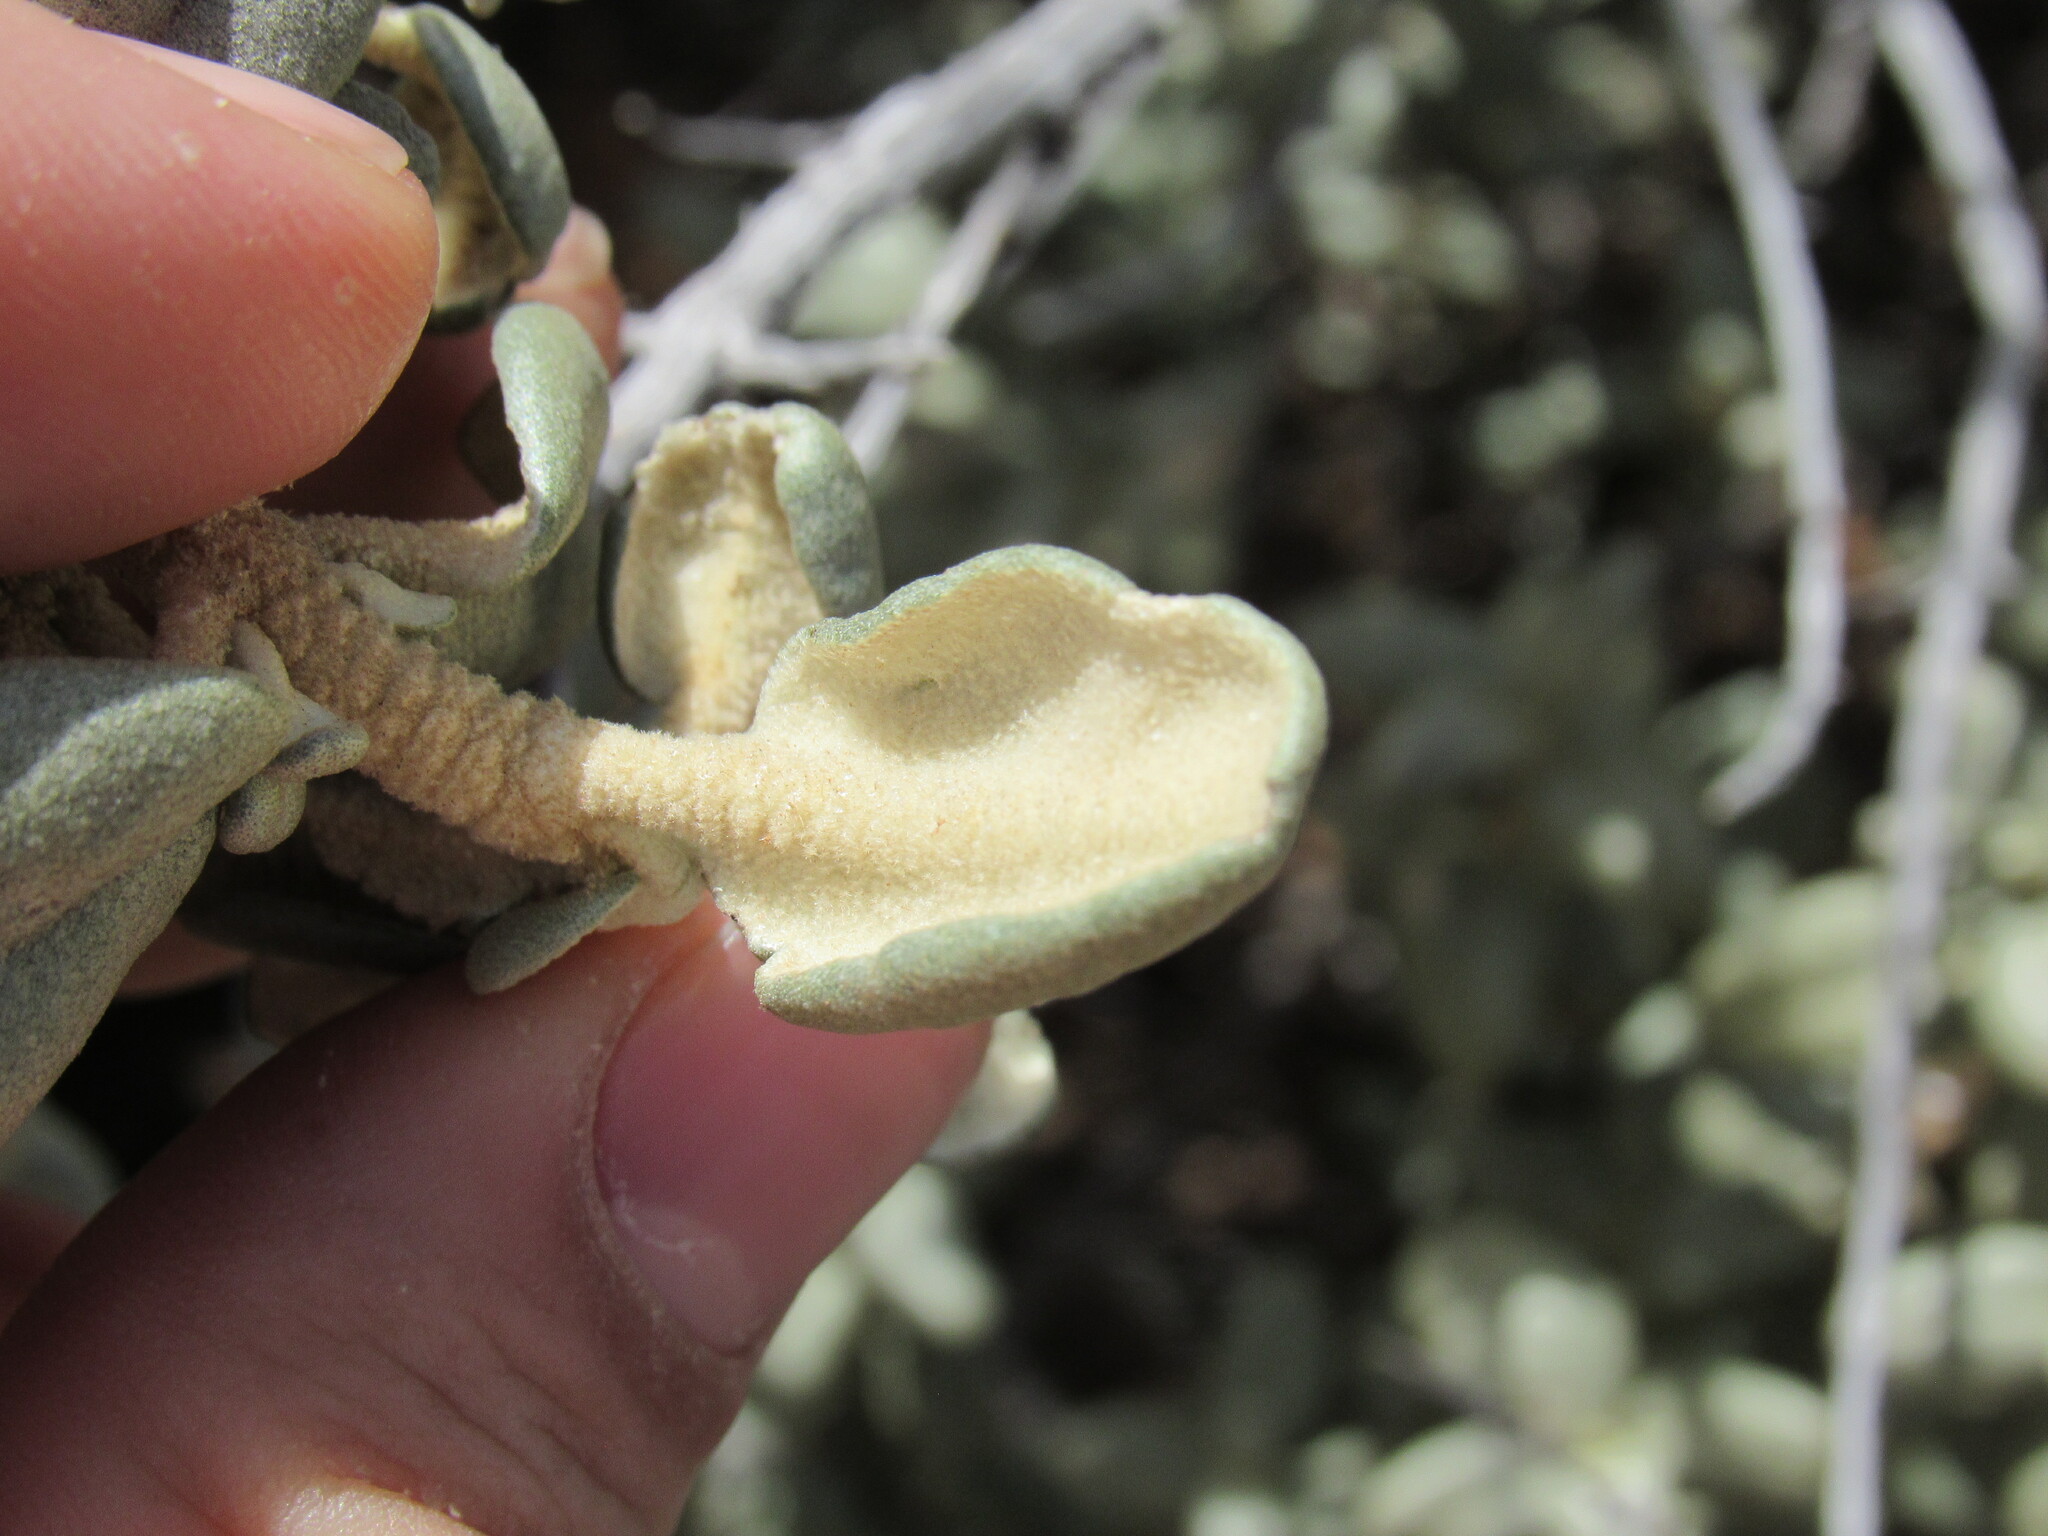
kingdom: Plantae
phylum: Tracheophyta
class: Magnoliopsida
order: Rosales
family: Elaeagnaceae
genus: Shepherdia
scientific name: Shepherdia rotundifolia
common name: Silverscale
